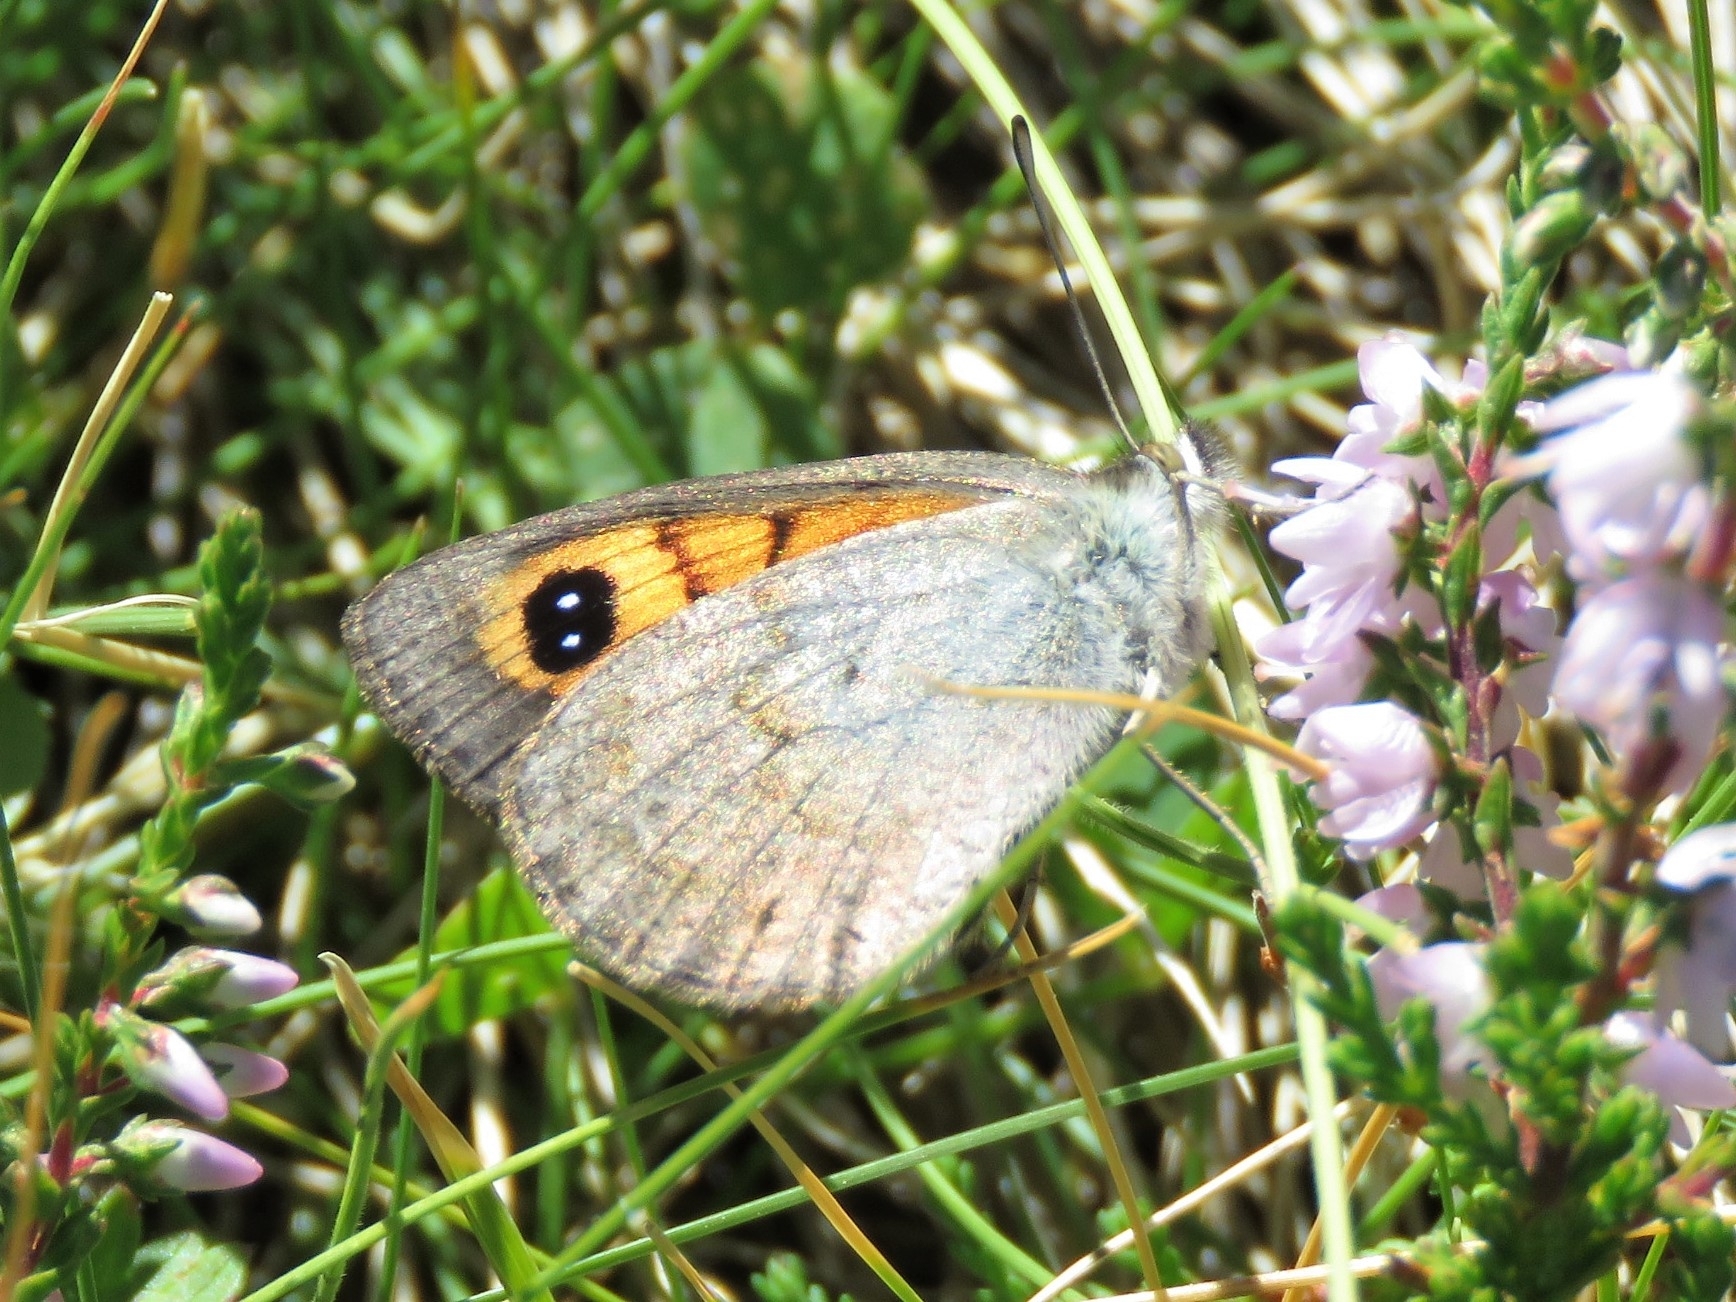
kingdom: Animalia
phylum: Arthropoda
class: Insecta
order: Lepidoptera
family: Nymphalidae
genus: Erebia
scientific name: Erebia tyndarus
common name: Swiss brassy ringlet
